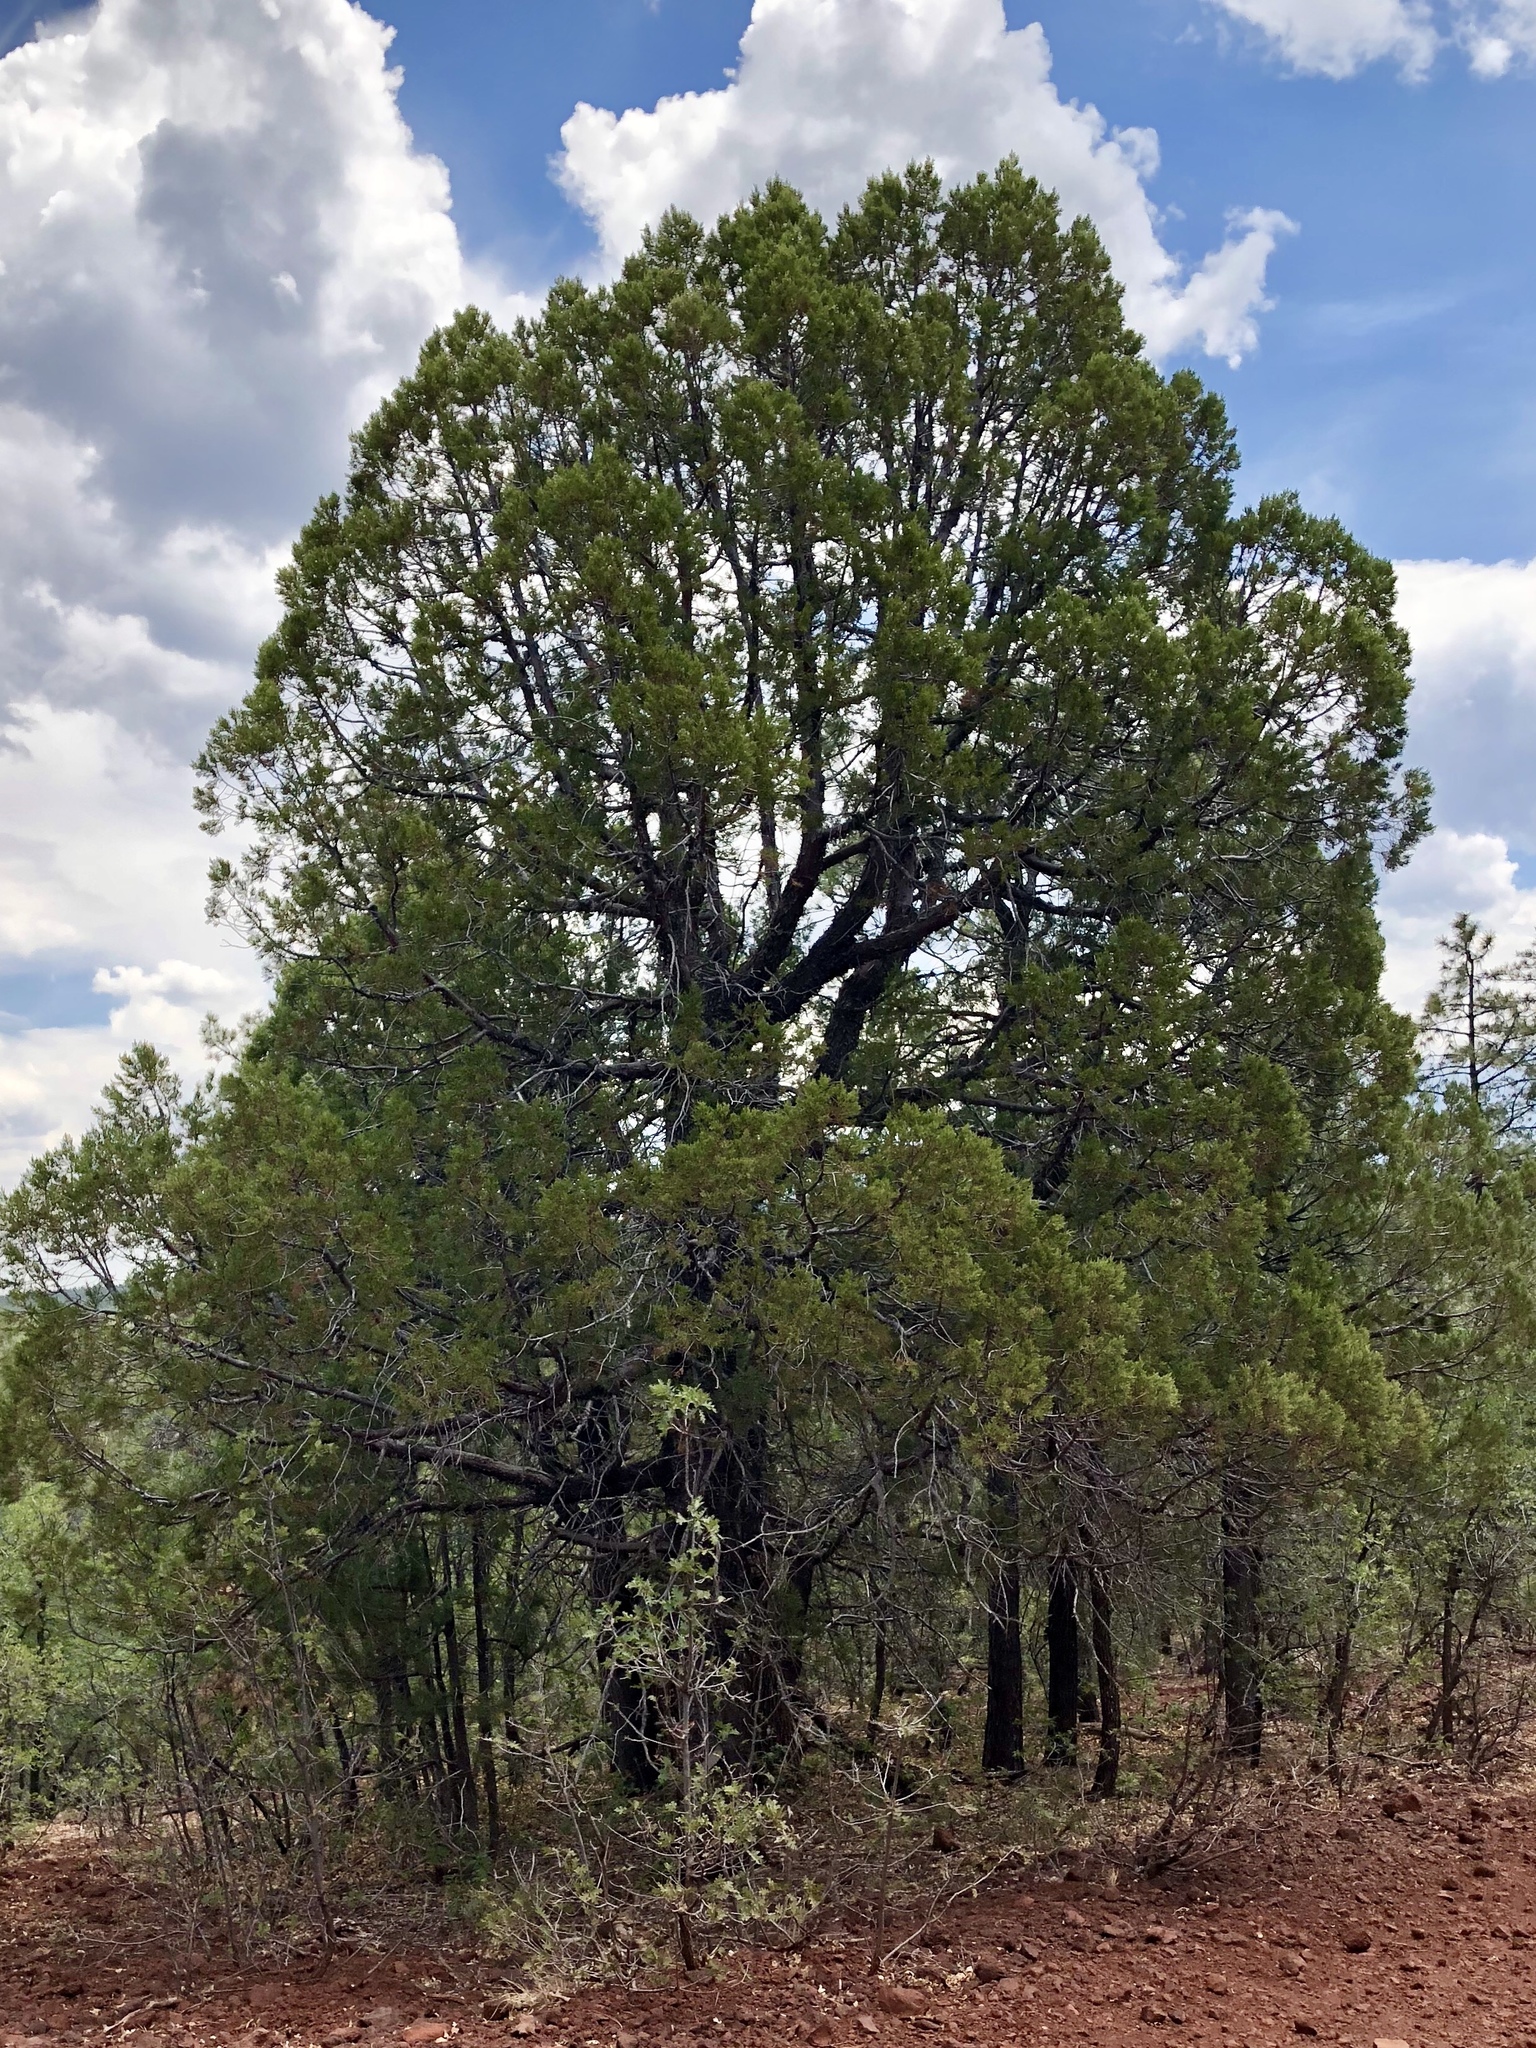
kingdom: Plantae
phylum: Tracheophyta
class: Pinopsida
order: Pinales
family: Cupressaceae
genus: Juniperus
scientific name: Juniperus deppeana
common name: Alligator juniper
